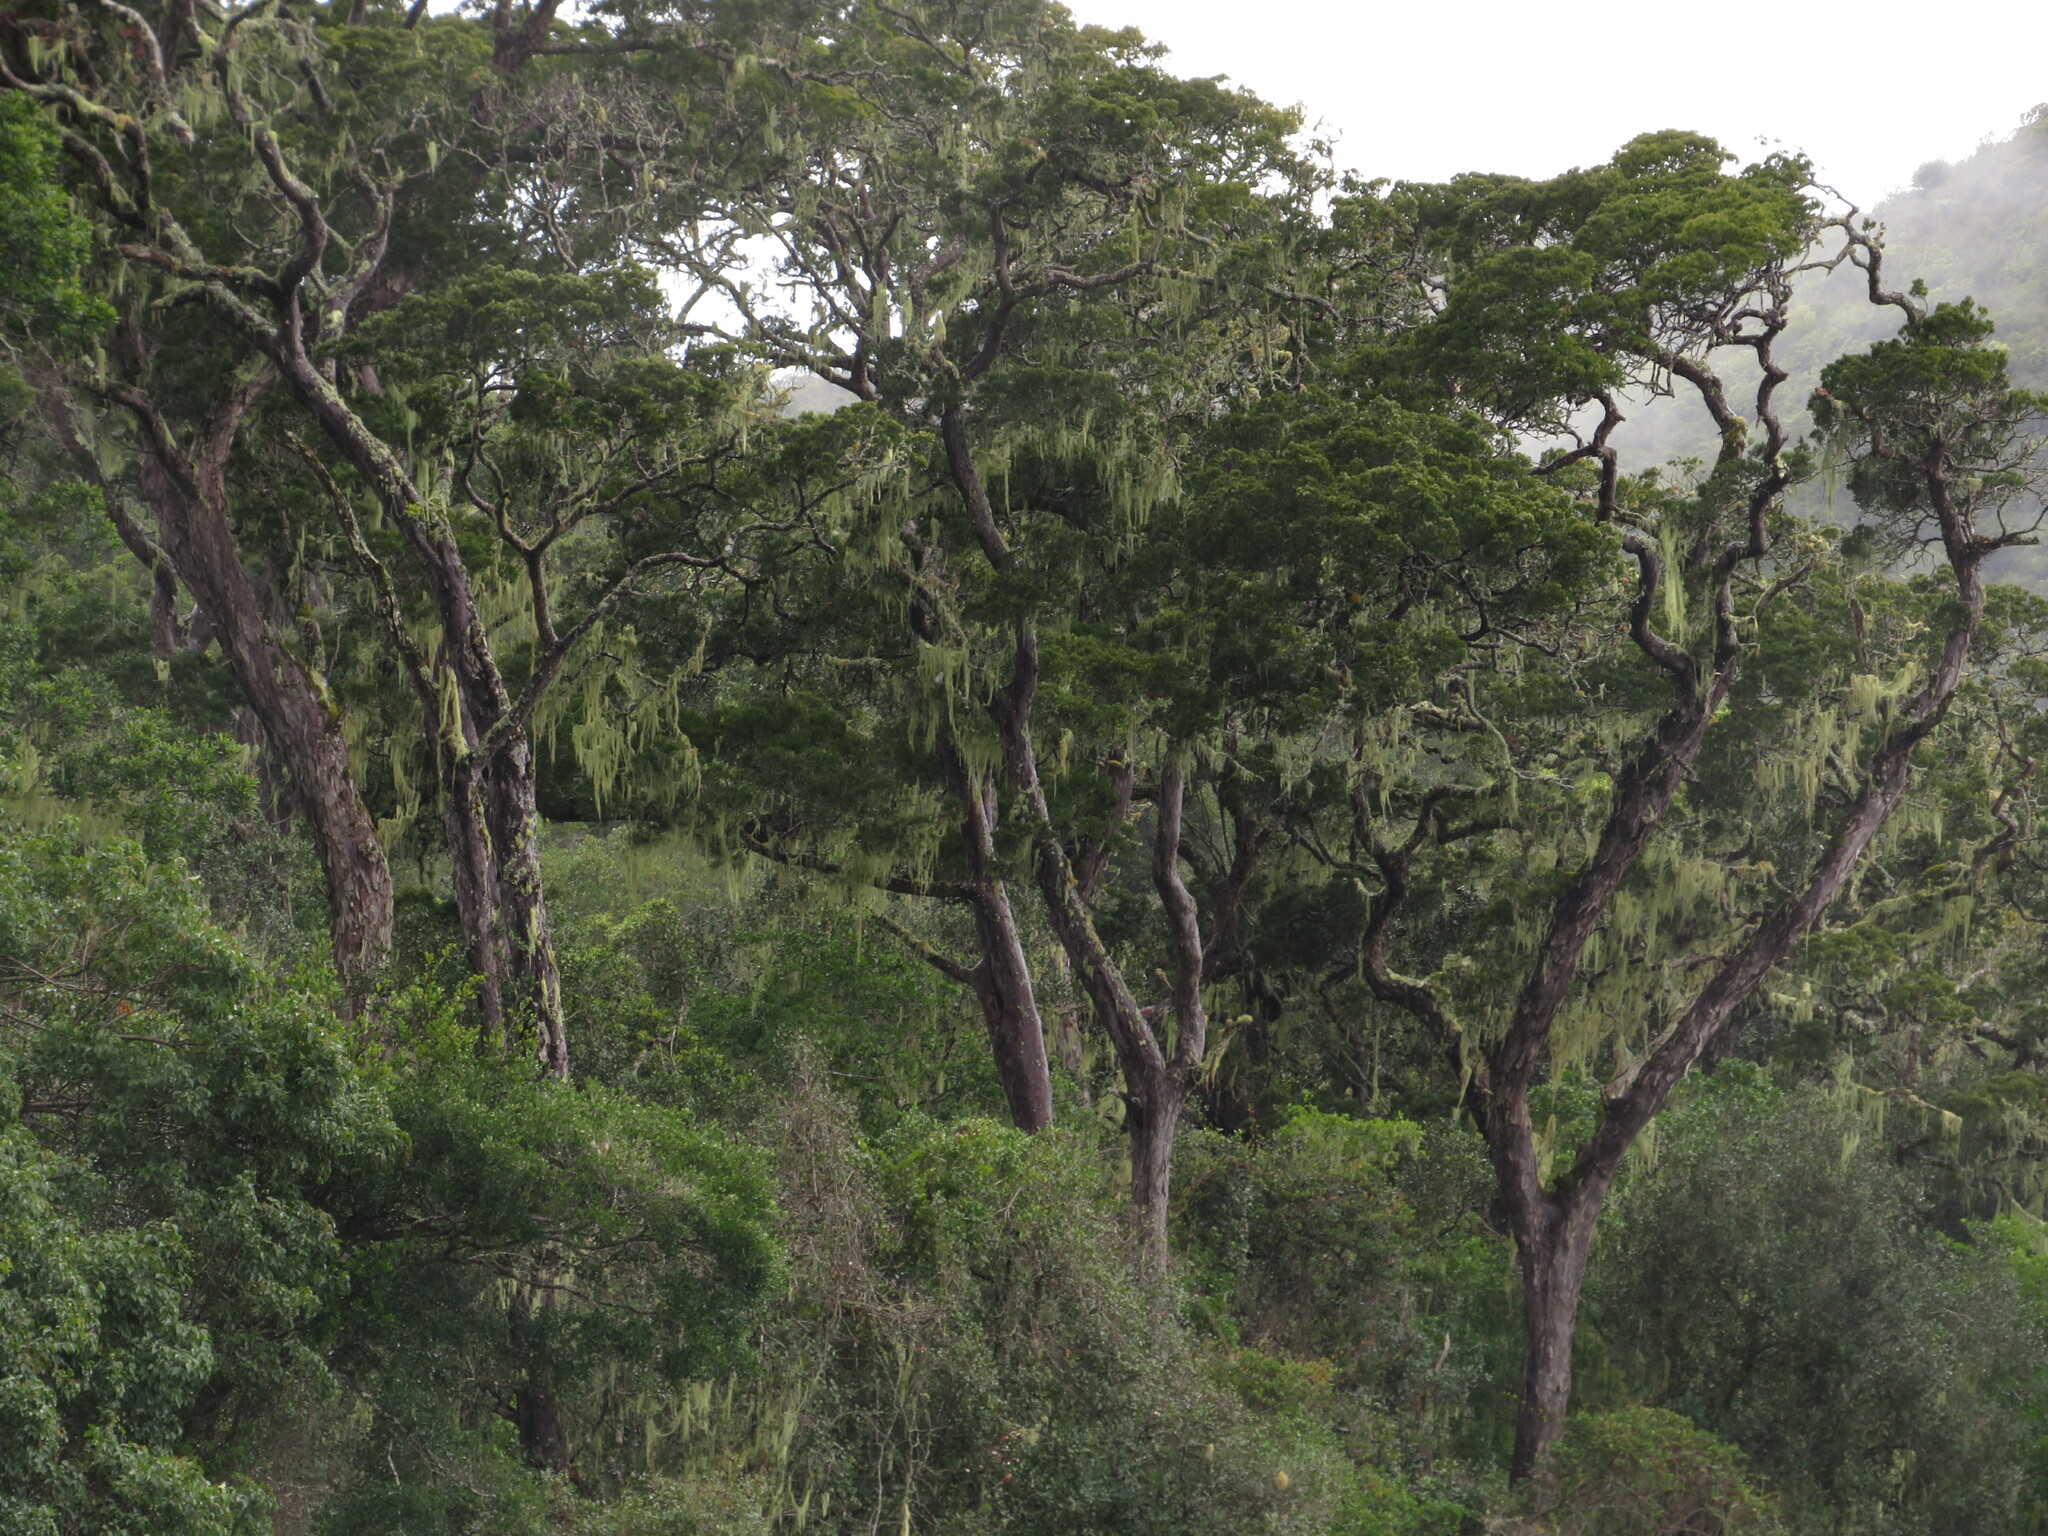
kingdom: Plantae
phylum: Tracheophyta
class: Pinopsida
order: Pinales
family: Podocarpaceae
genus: Afrocarpus
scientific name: Afrocarpus falcatus
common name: Bastard yellowwood
